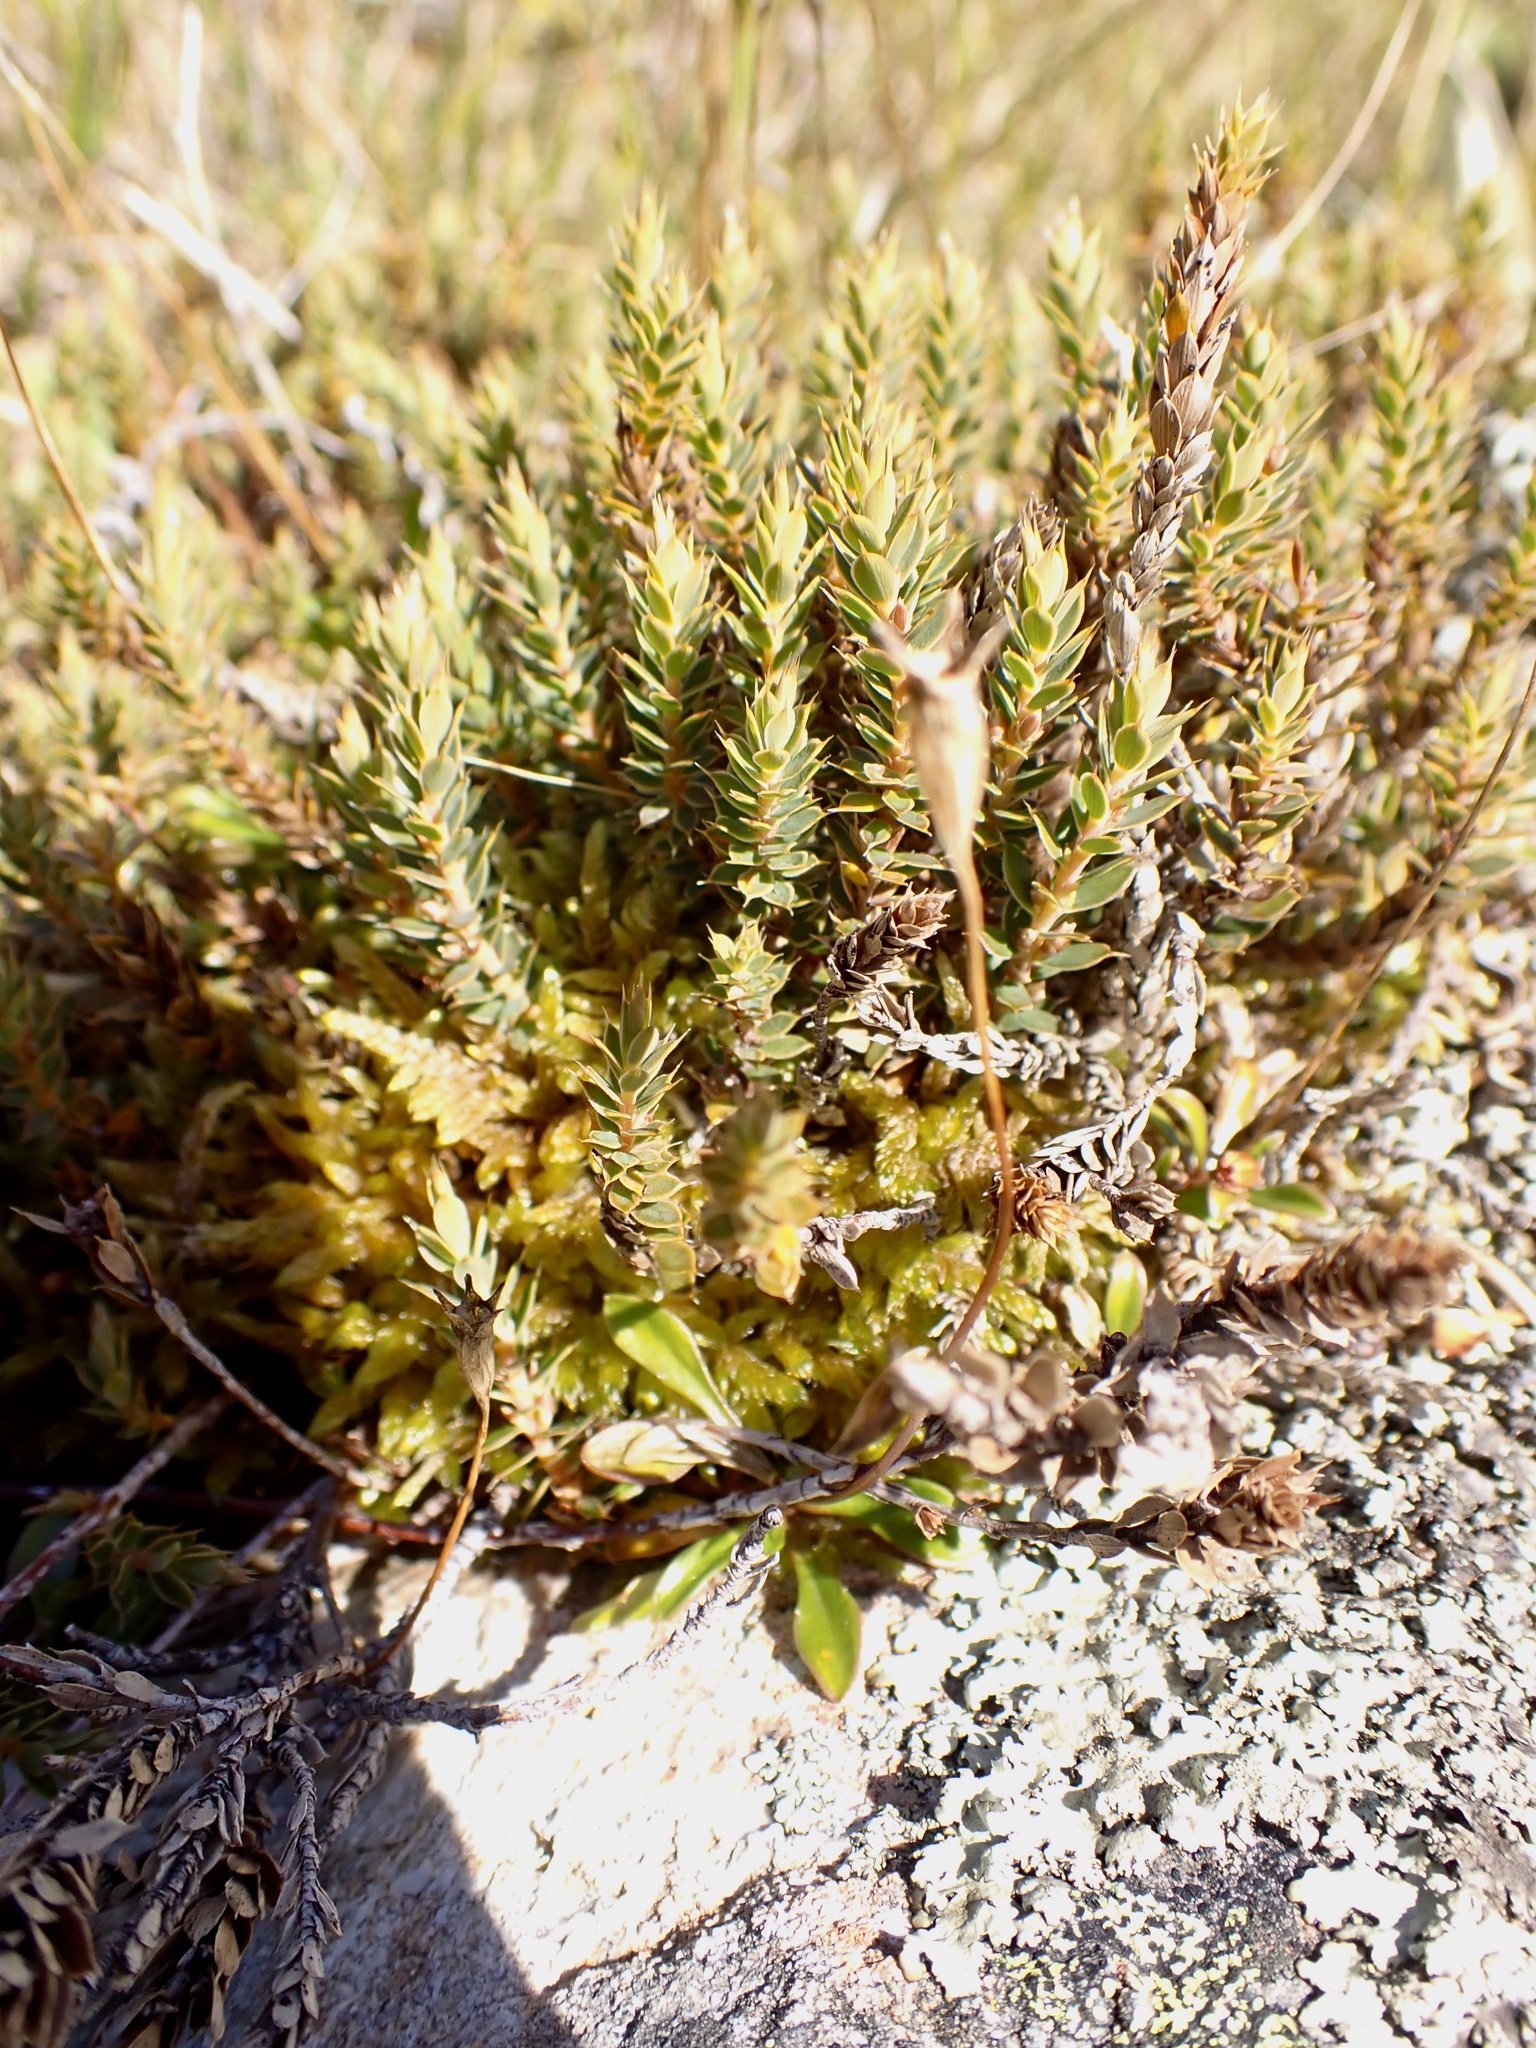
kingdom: Plantae
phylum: Tracheophyta
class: Magnoliopsida
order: Ericales
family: Ericaceae
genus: Styphelia
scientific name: Styphelia nesophila
